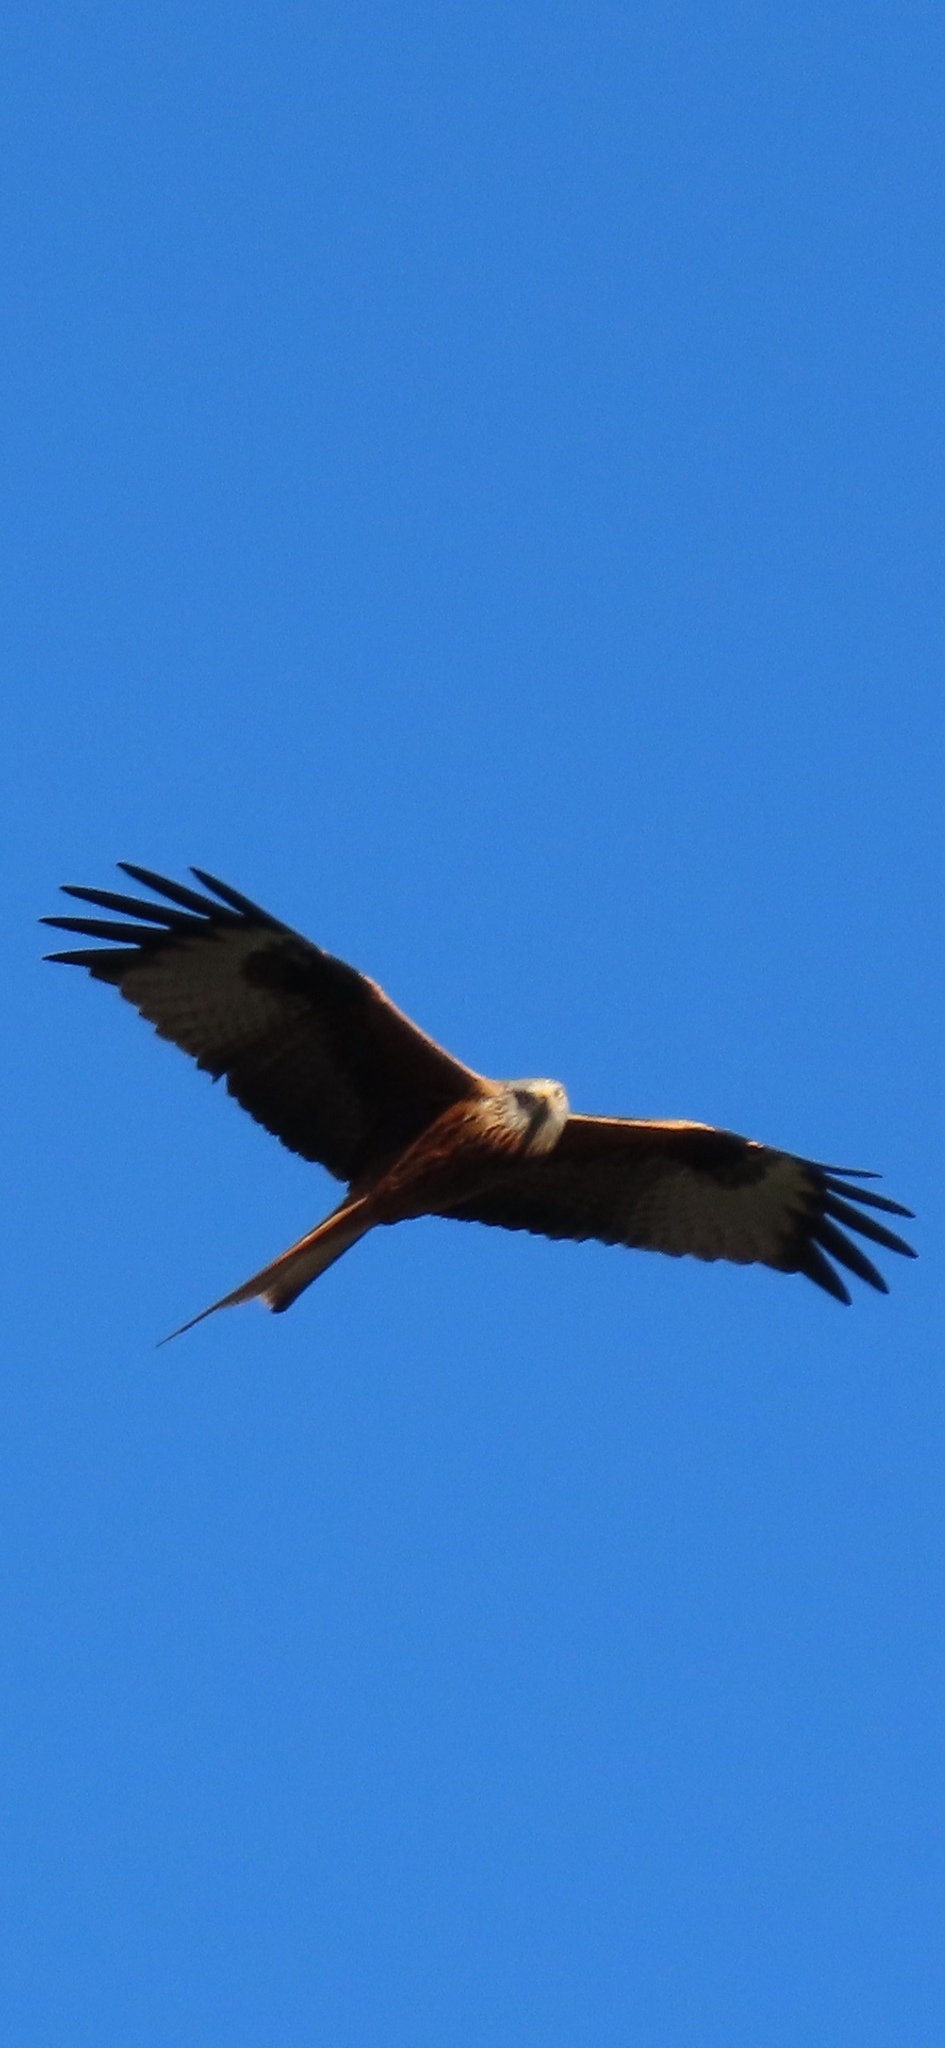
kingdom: Animalia
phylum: Chordata
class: Aves
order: Accipitriformes
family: Accipitridae
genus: Milvus
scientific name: Milvus milvus
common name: Red kite
